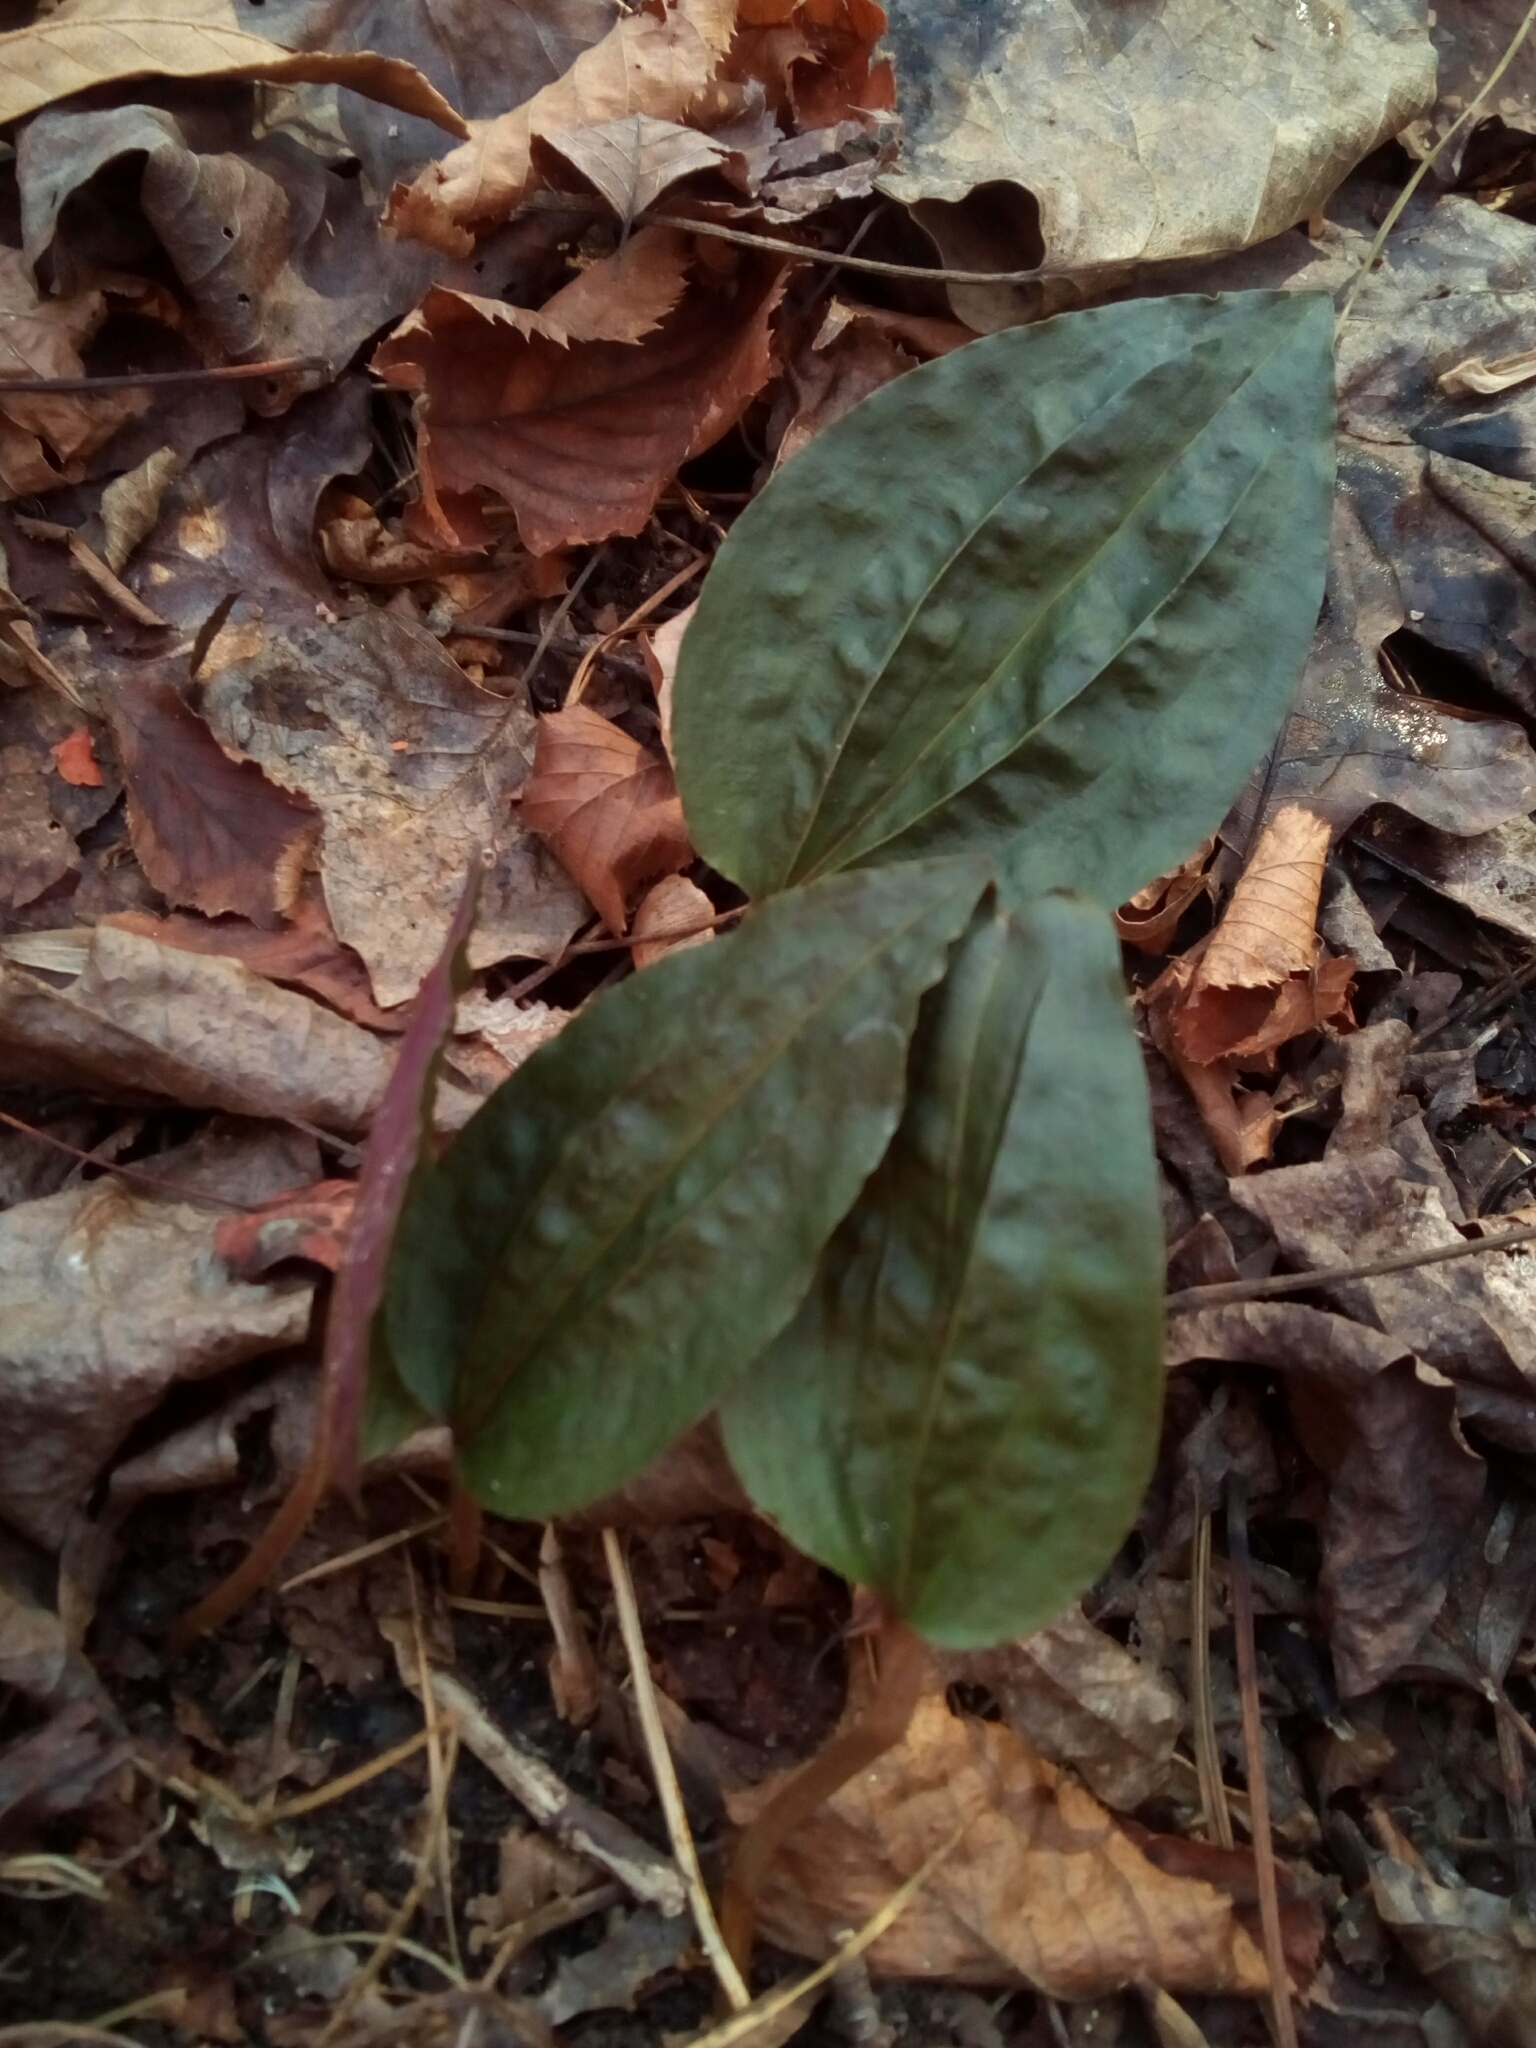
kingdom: Plantae
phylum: Tracheophyta
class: Liliopsida
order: Asparagales
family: Orchidaceae
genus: Tipularia
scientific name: Tipularia discolor
